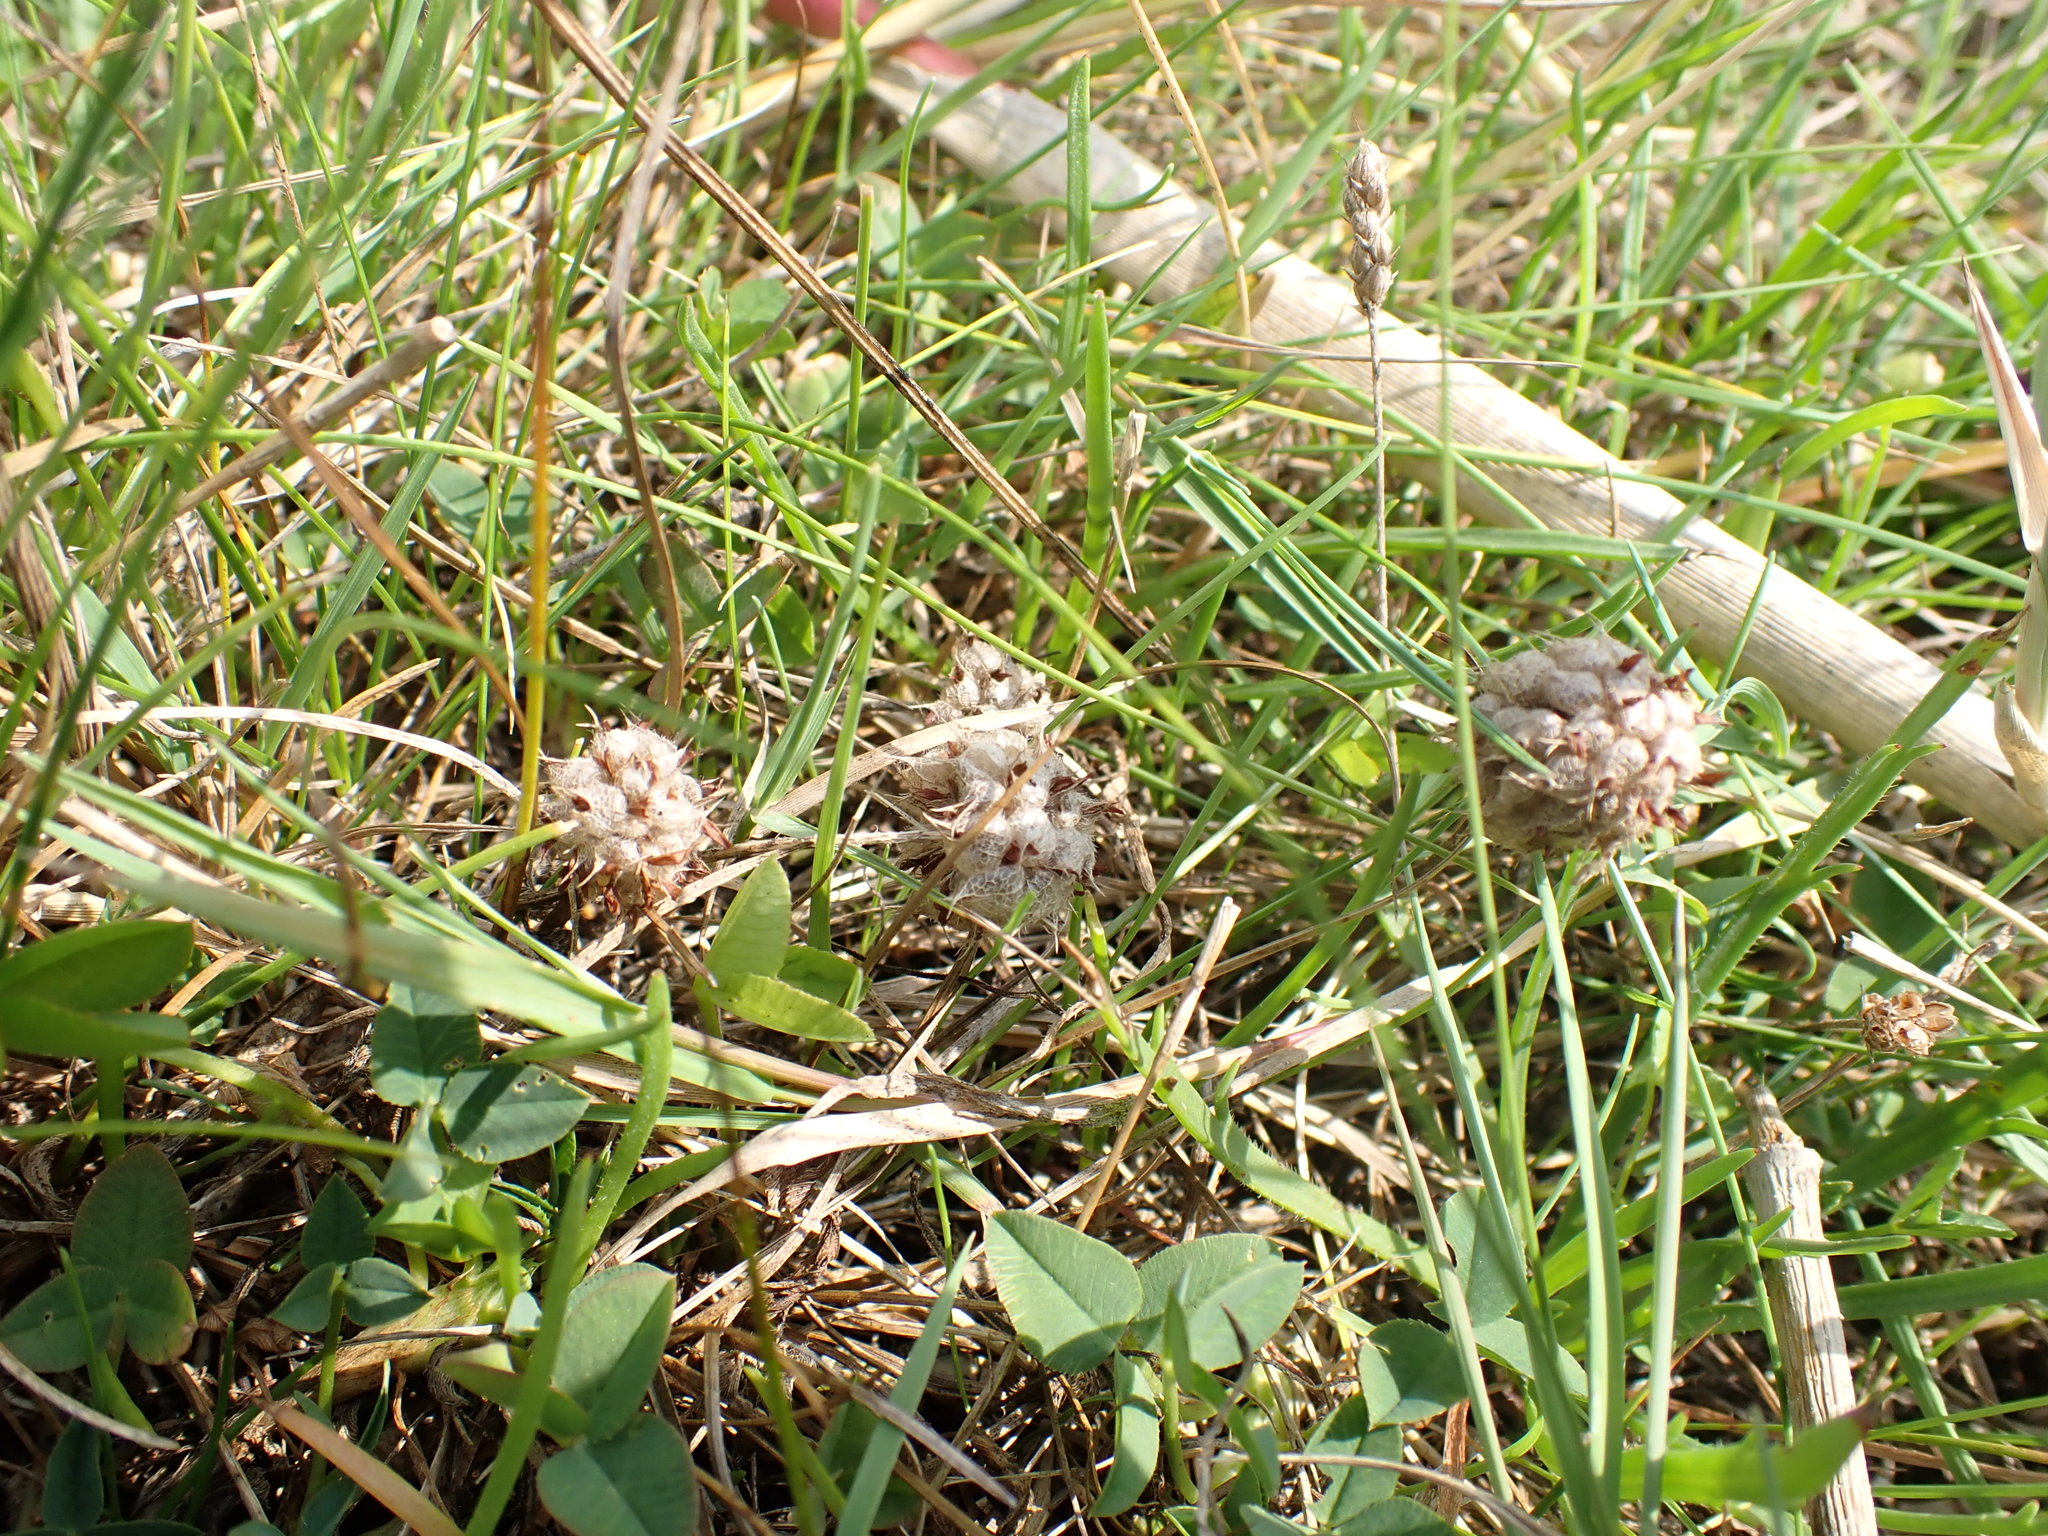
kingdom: Plantae
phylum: Tracheophyta
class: Magnoliopsida
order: Fabales
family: Fabaceae
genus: Trifolium
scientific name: Trifolium fragiferum
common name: Strawberry clover
